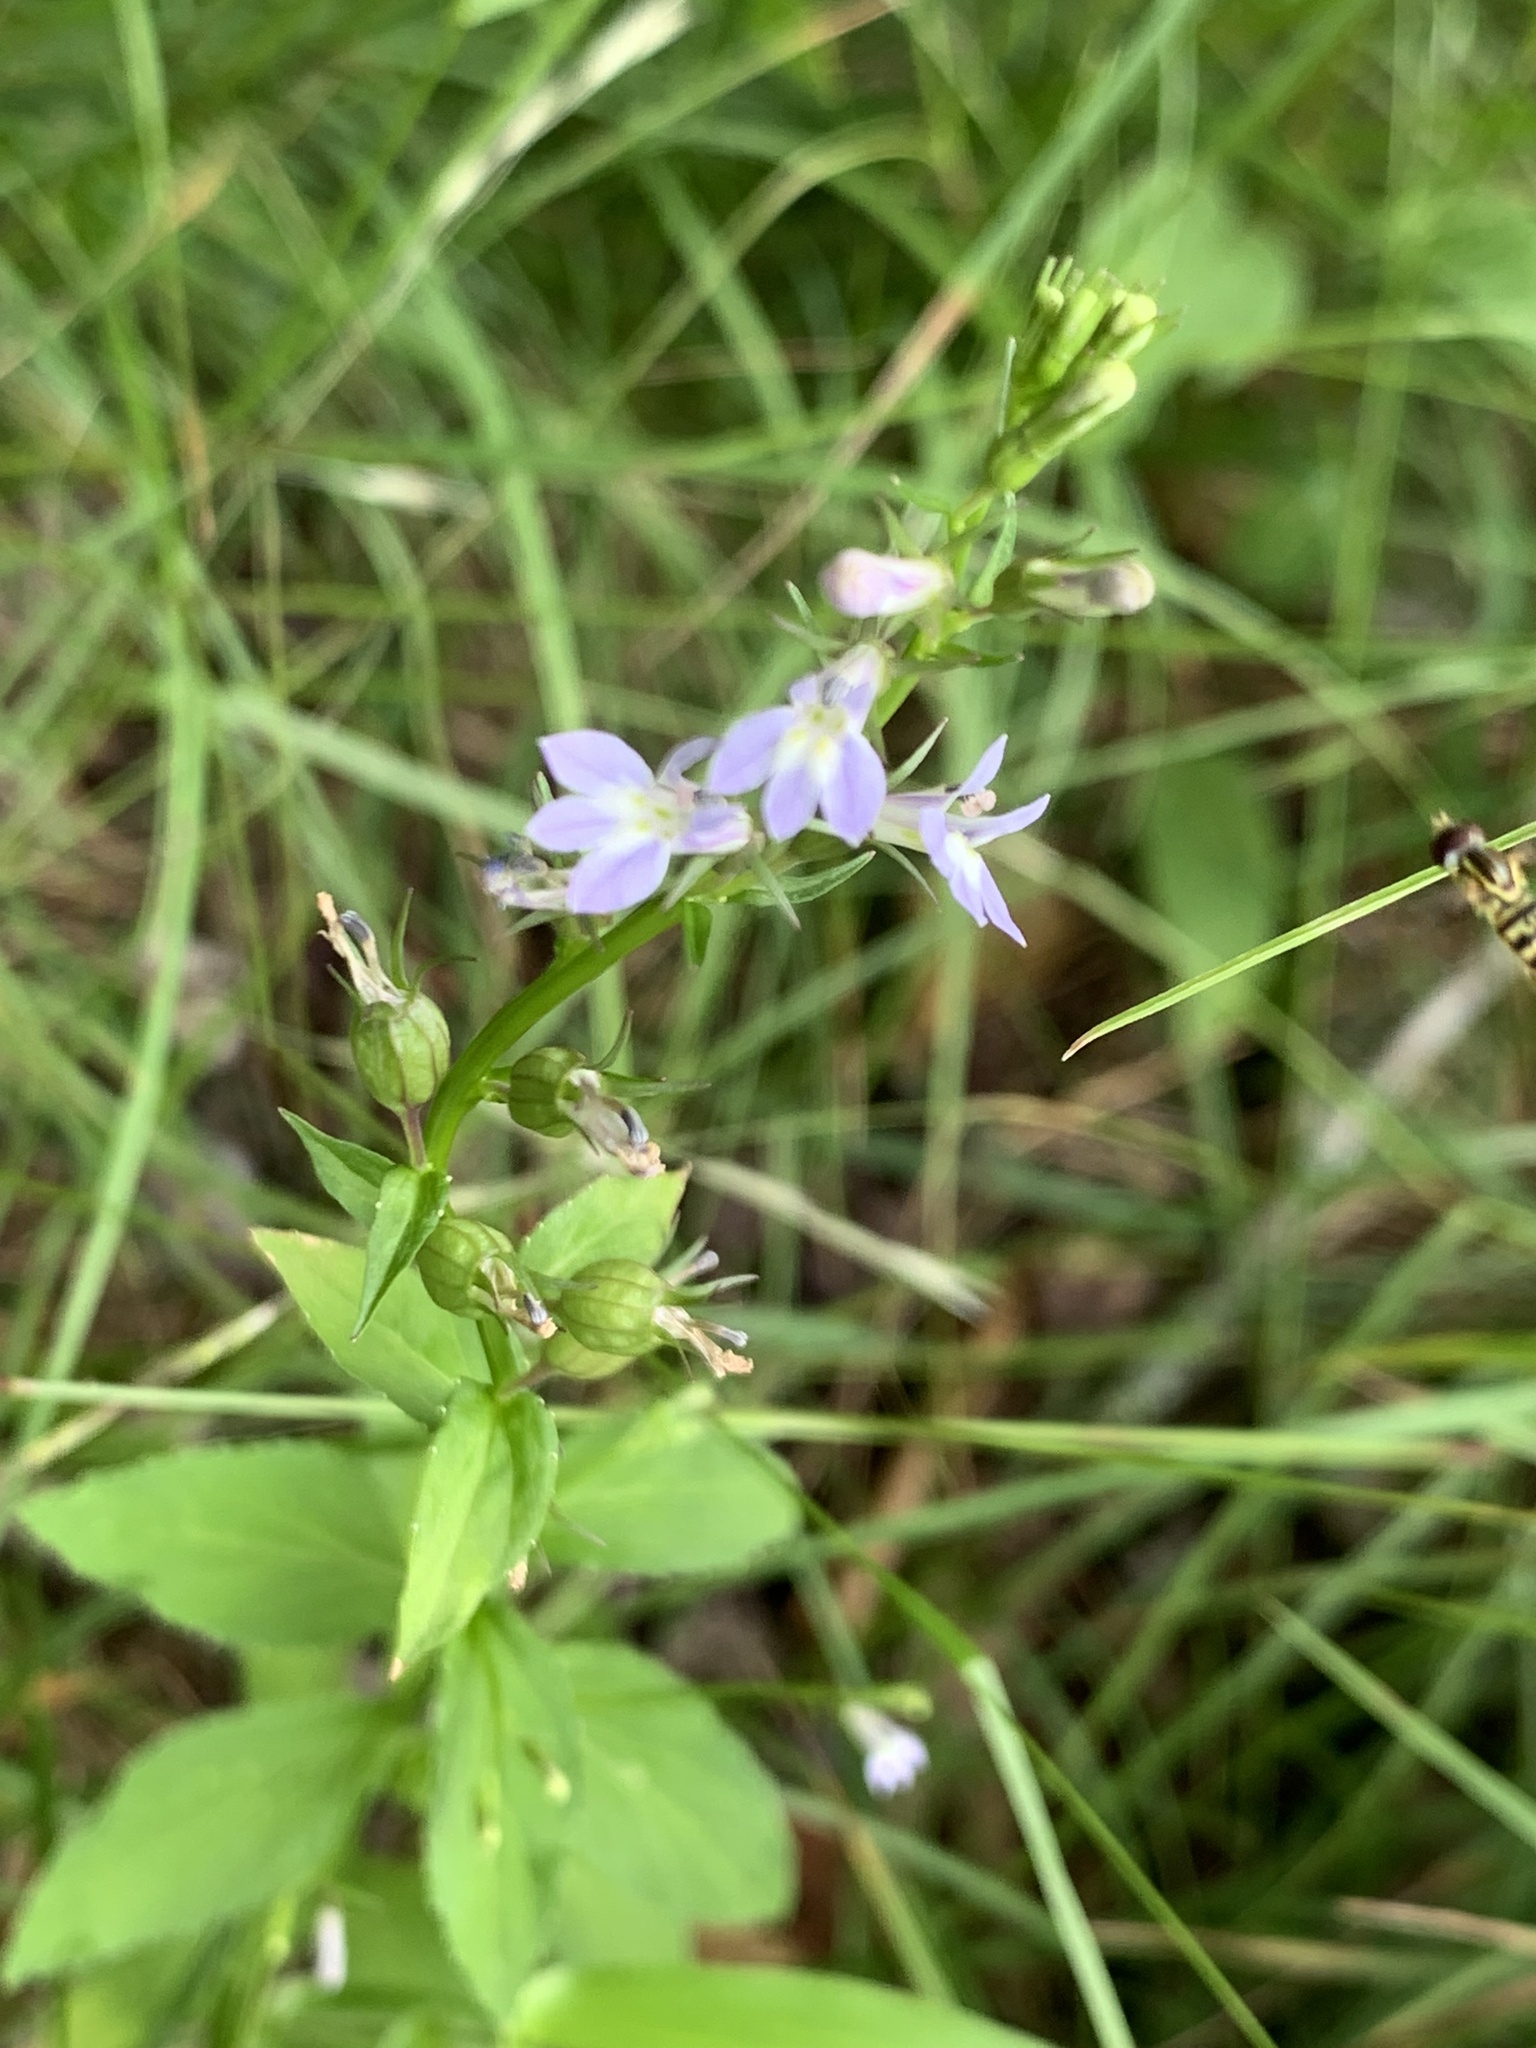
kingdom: Animalia
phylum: Arthropoda
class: Insecta
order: Diptera
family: Syrphidae
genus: Toxomerus
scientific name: Toxomerus geminatus
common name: Eastern calligrapher
